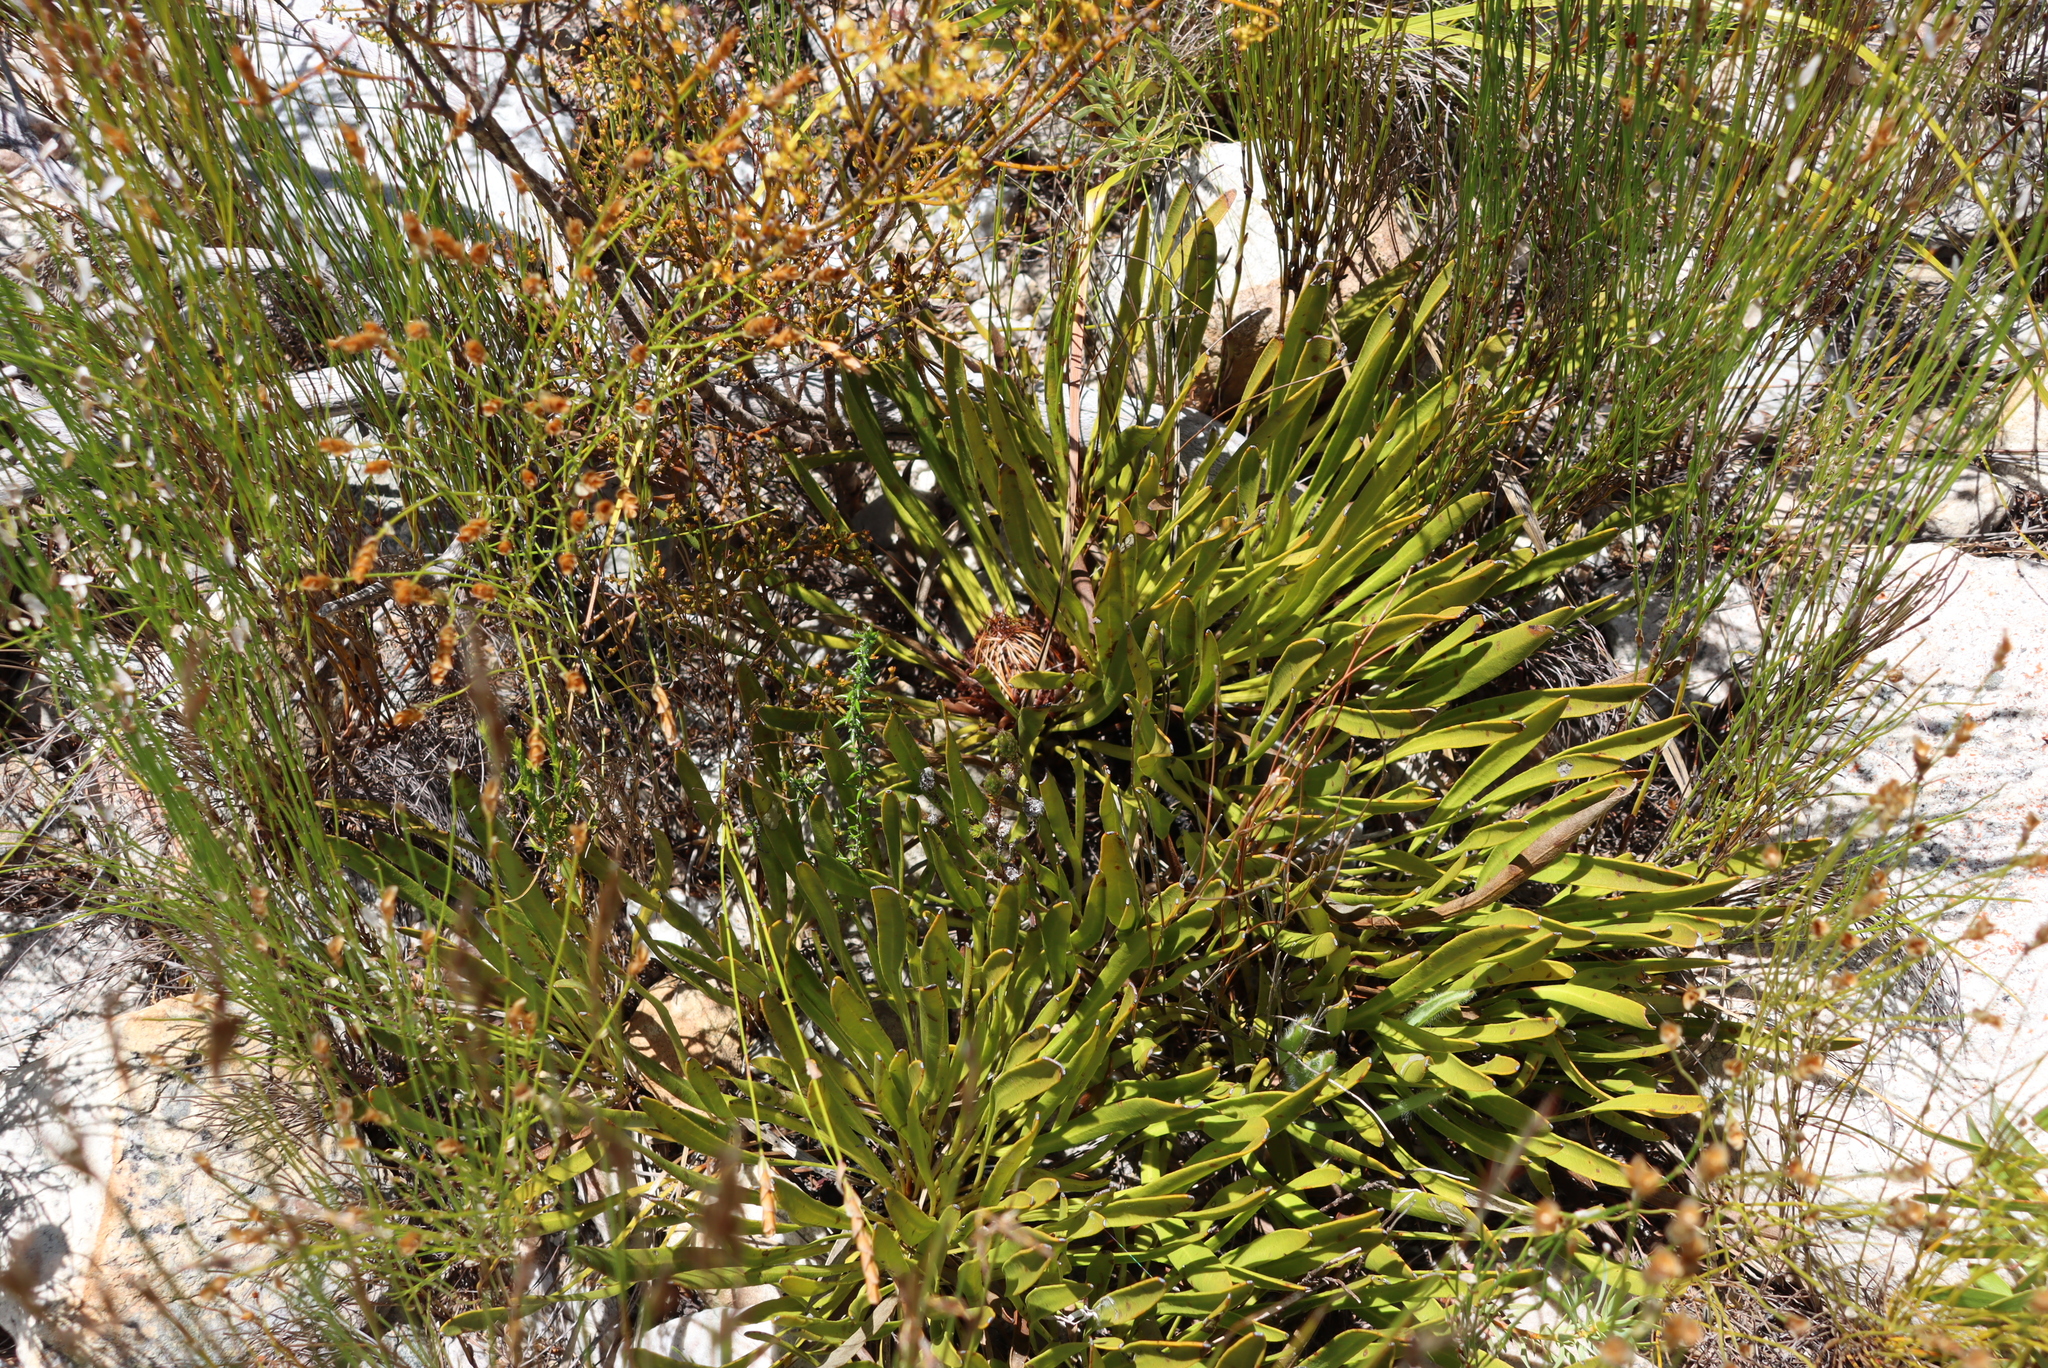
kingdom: Plantae
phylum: Tracheophyta
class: Magnoliopsida
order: Proteales
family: Proteaceae
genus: Protea
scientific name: Protea scabra
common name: Sandpaper-leaf sugarbush
